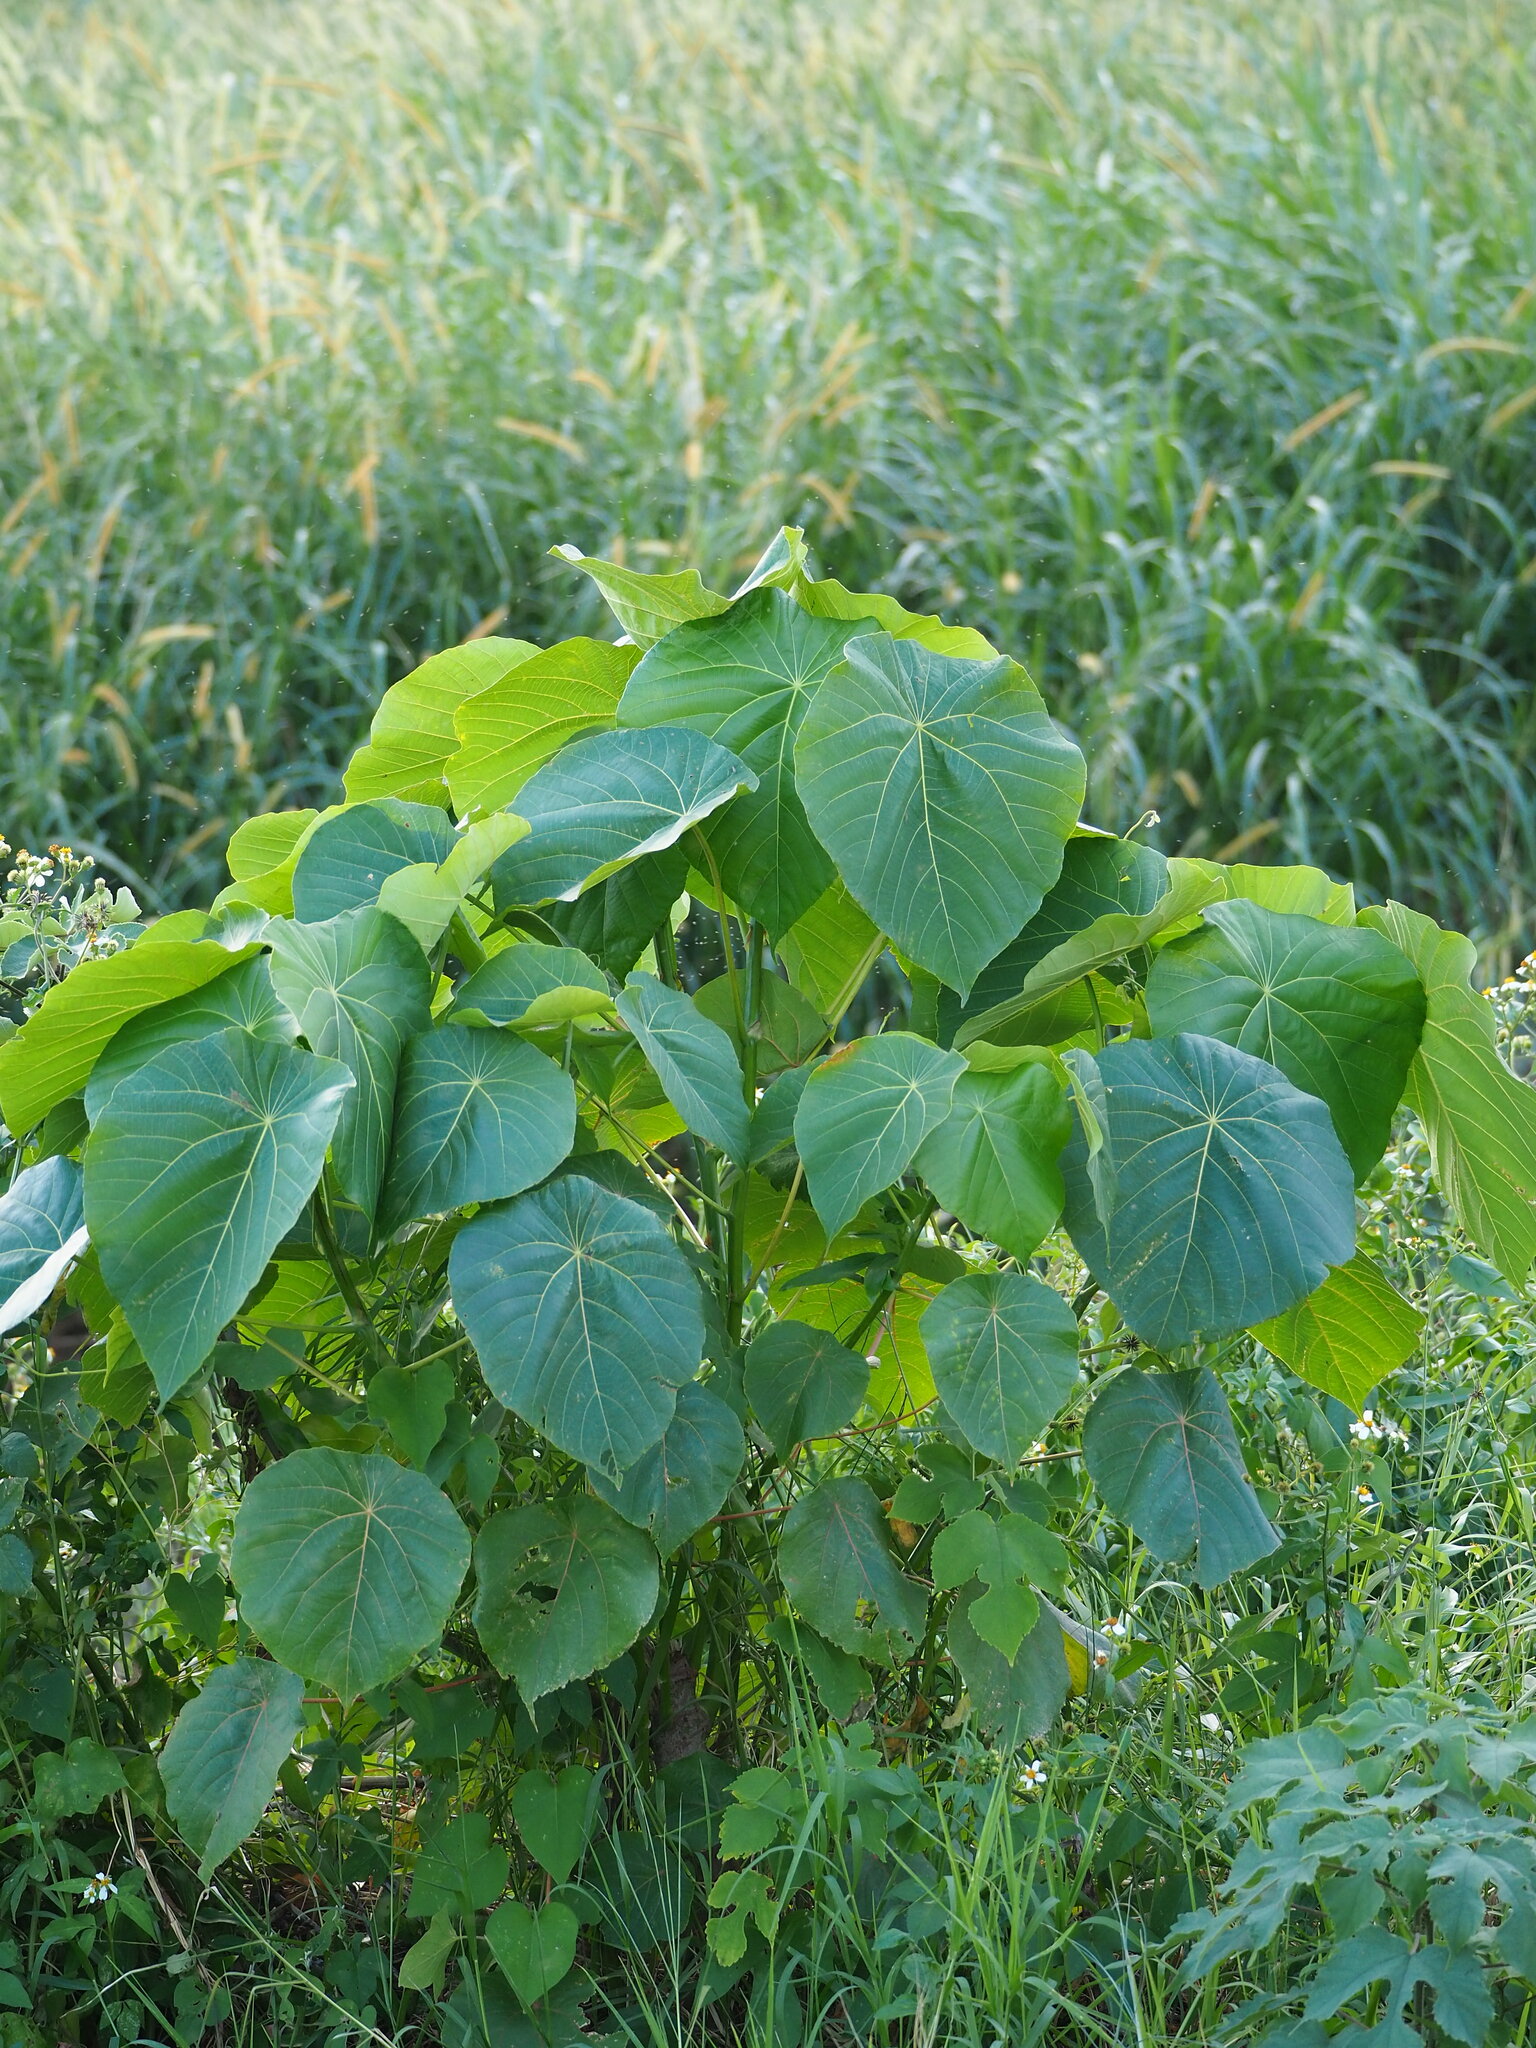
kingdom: Plantae
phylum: Tracheophyta
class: Magnoliopsida
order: Malpighiales
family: Euphorbiaceae
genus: Macaranga
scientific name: Macaranga tanarius
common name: Parasol leaf tree
